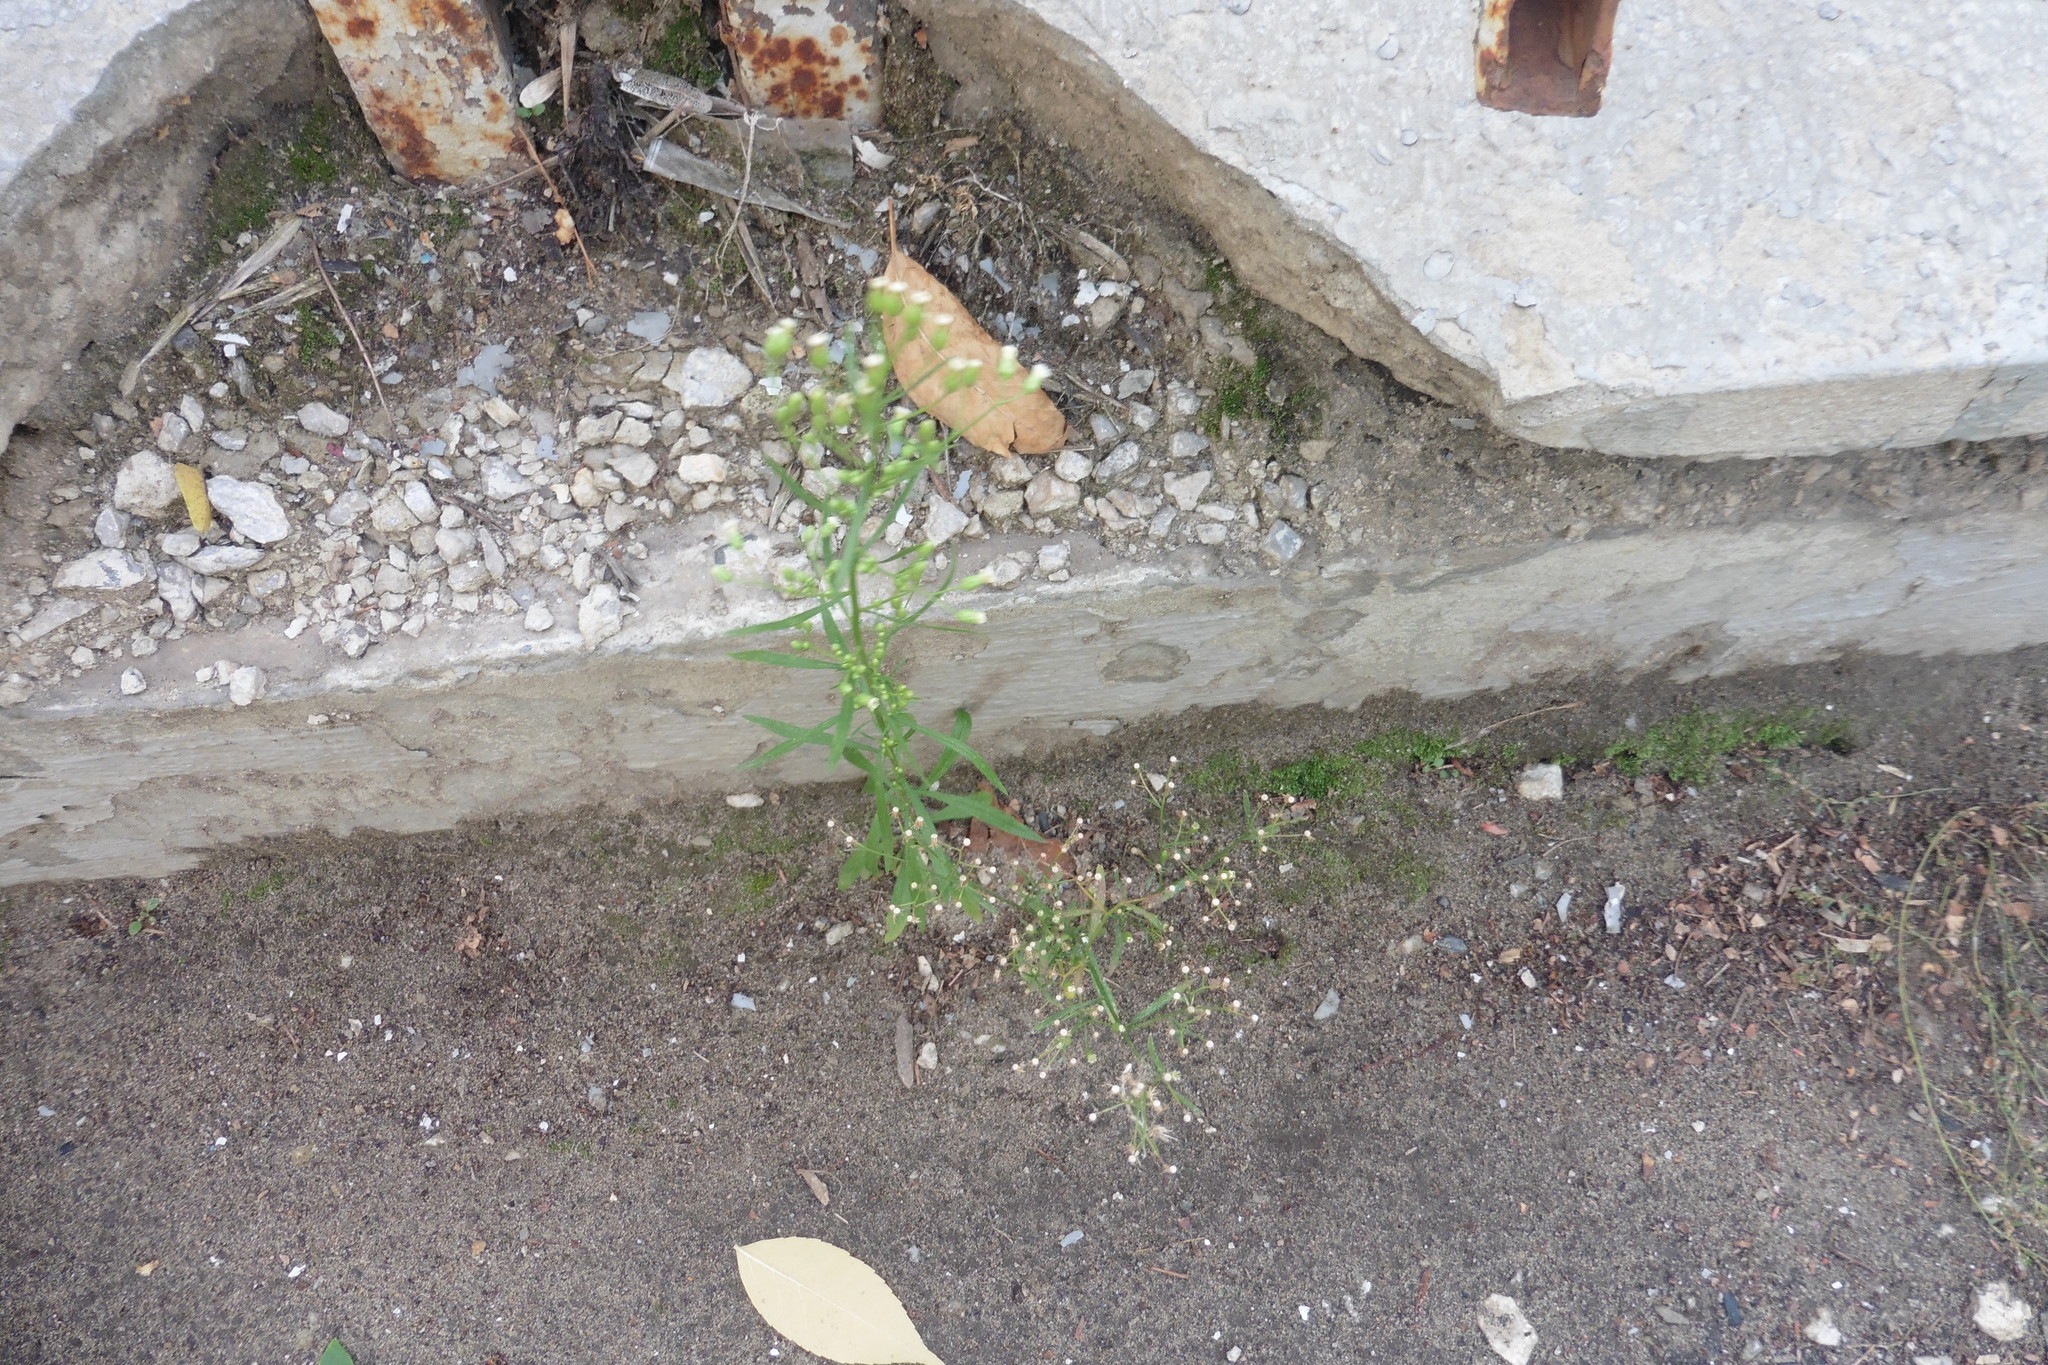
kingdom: Plantae
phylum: Tracheophyta
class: Magnoliopsida
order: Asterales
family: Asteraceae
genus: Erigeron
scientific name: Erigeron canadensis
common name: Canadian fleabane
